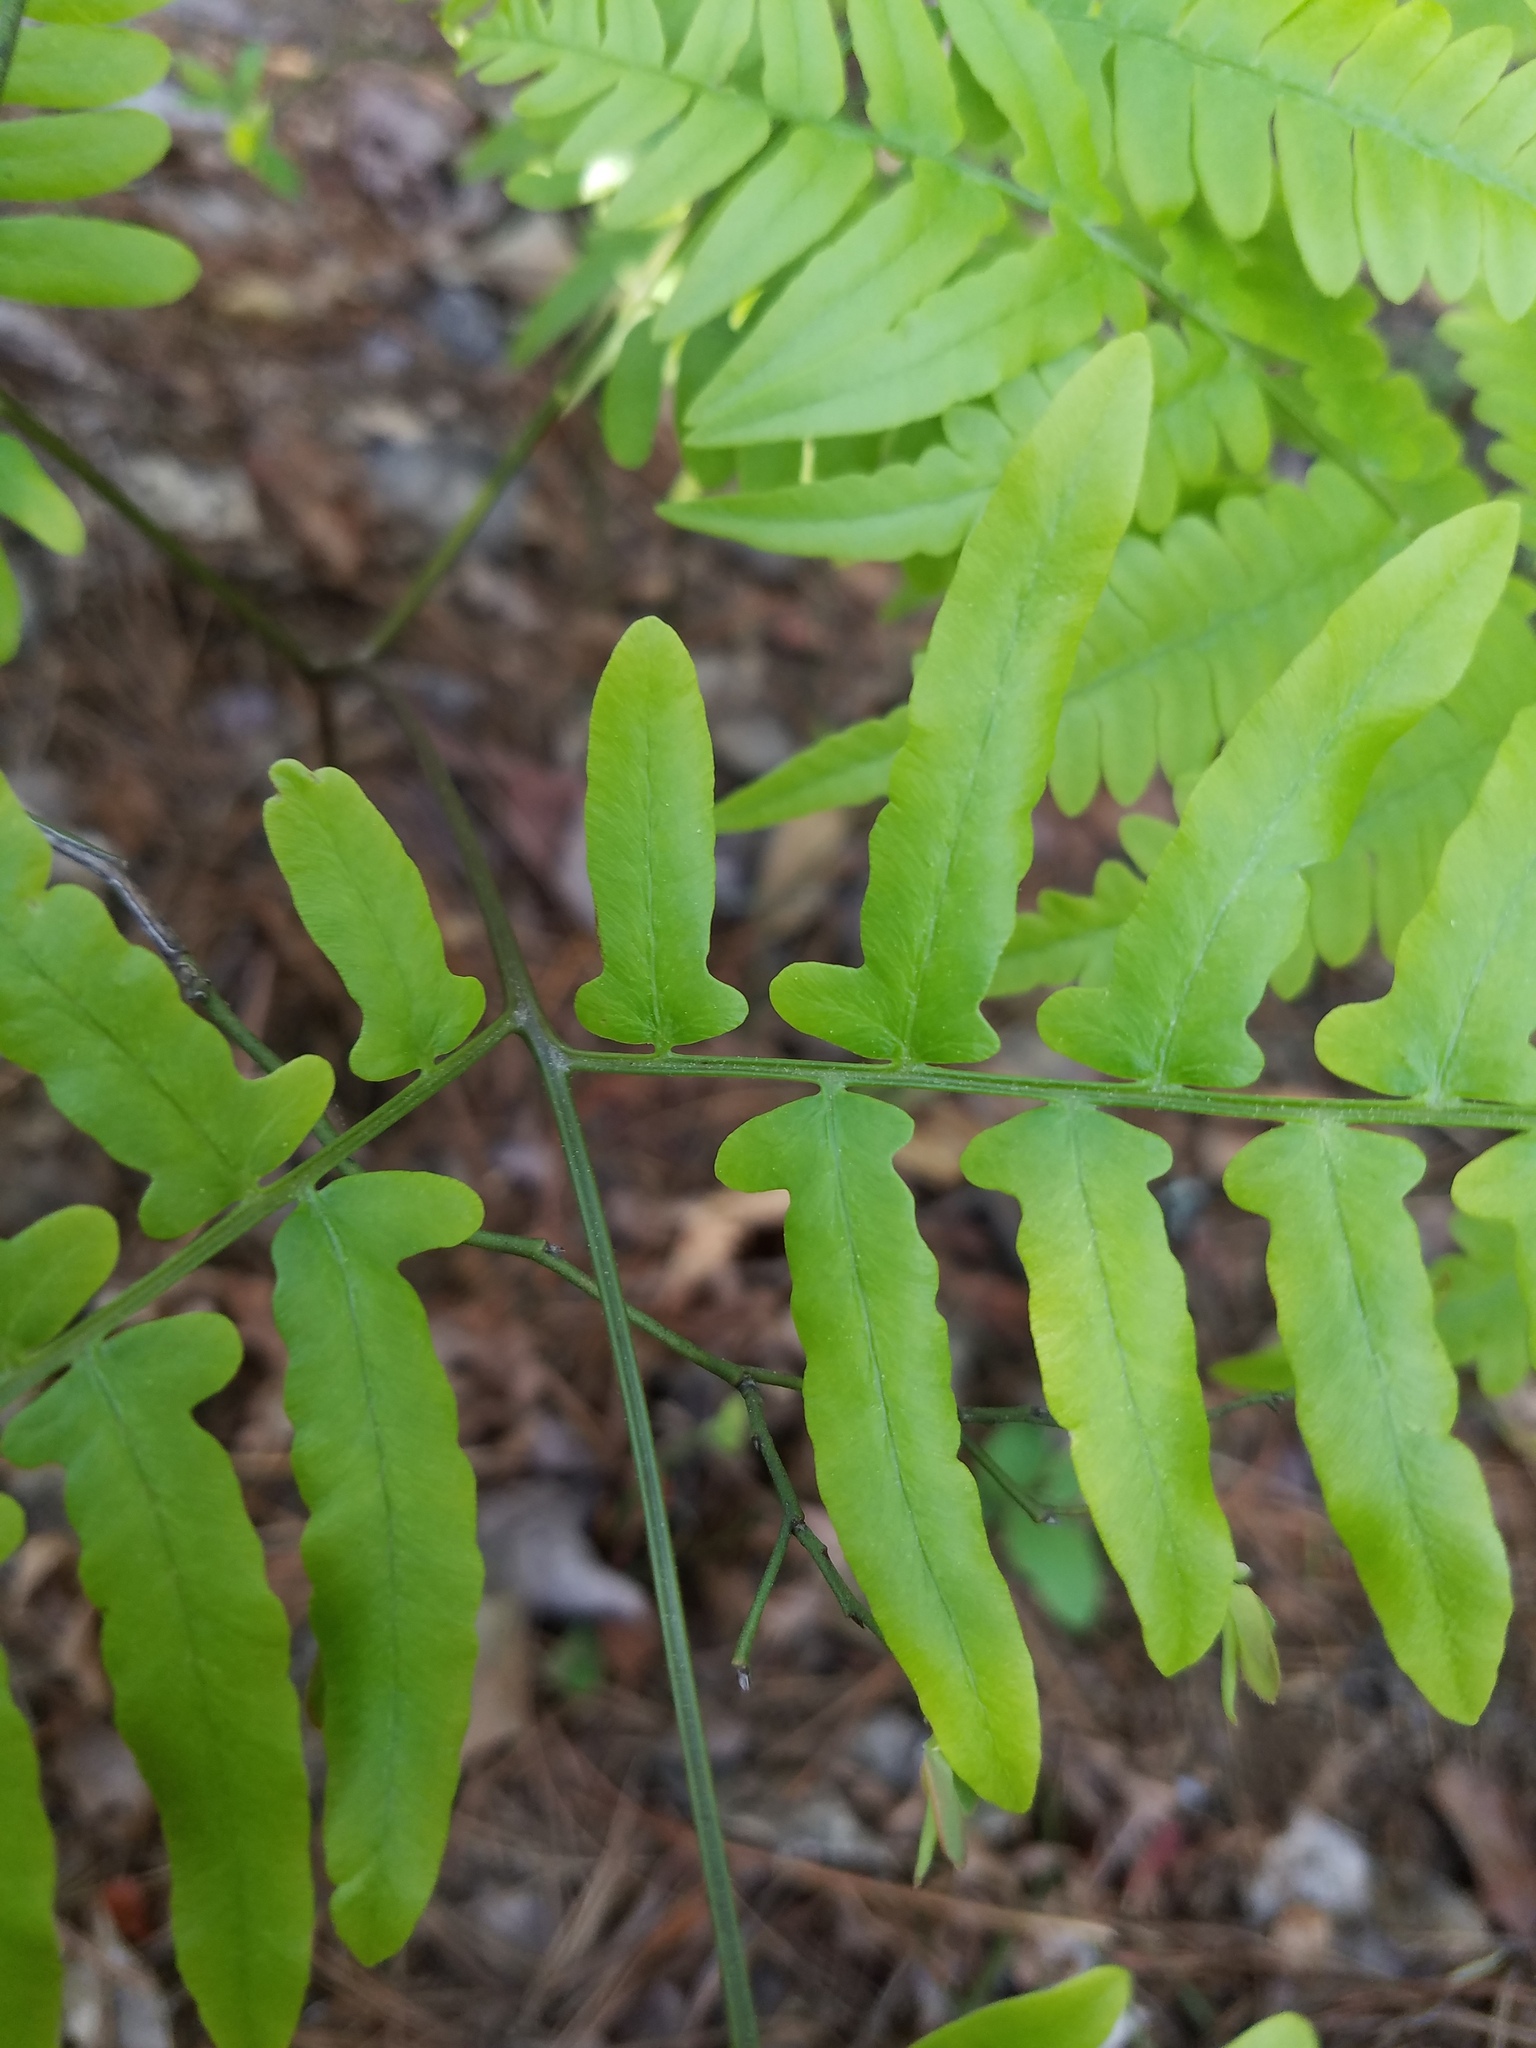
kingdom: Plantae
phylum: Tracheophyta
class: Polypodiopsida
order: Polypodiales
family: Dennstaedtiaceae
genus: Pteridium
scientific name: Pteridium aquilinum
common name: Bracken
